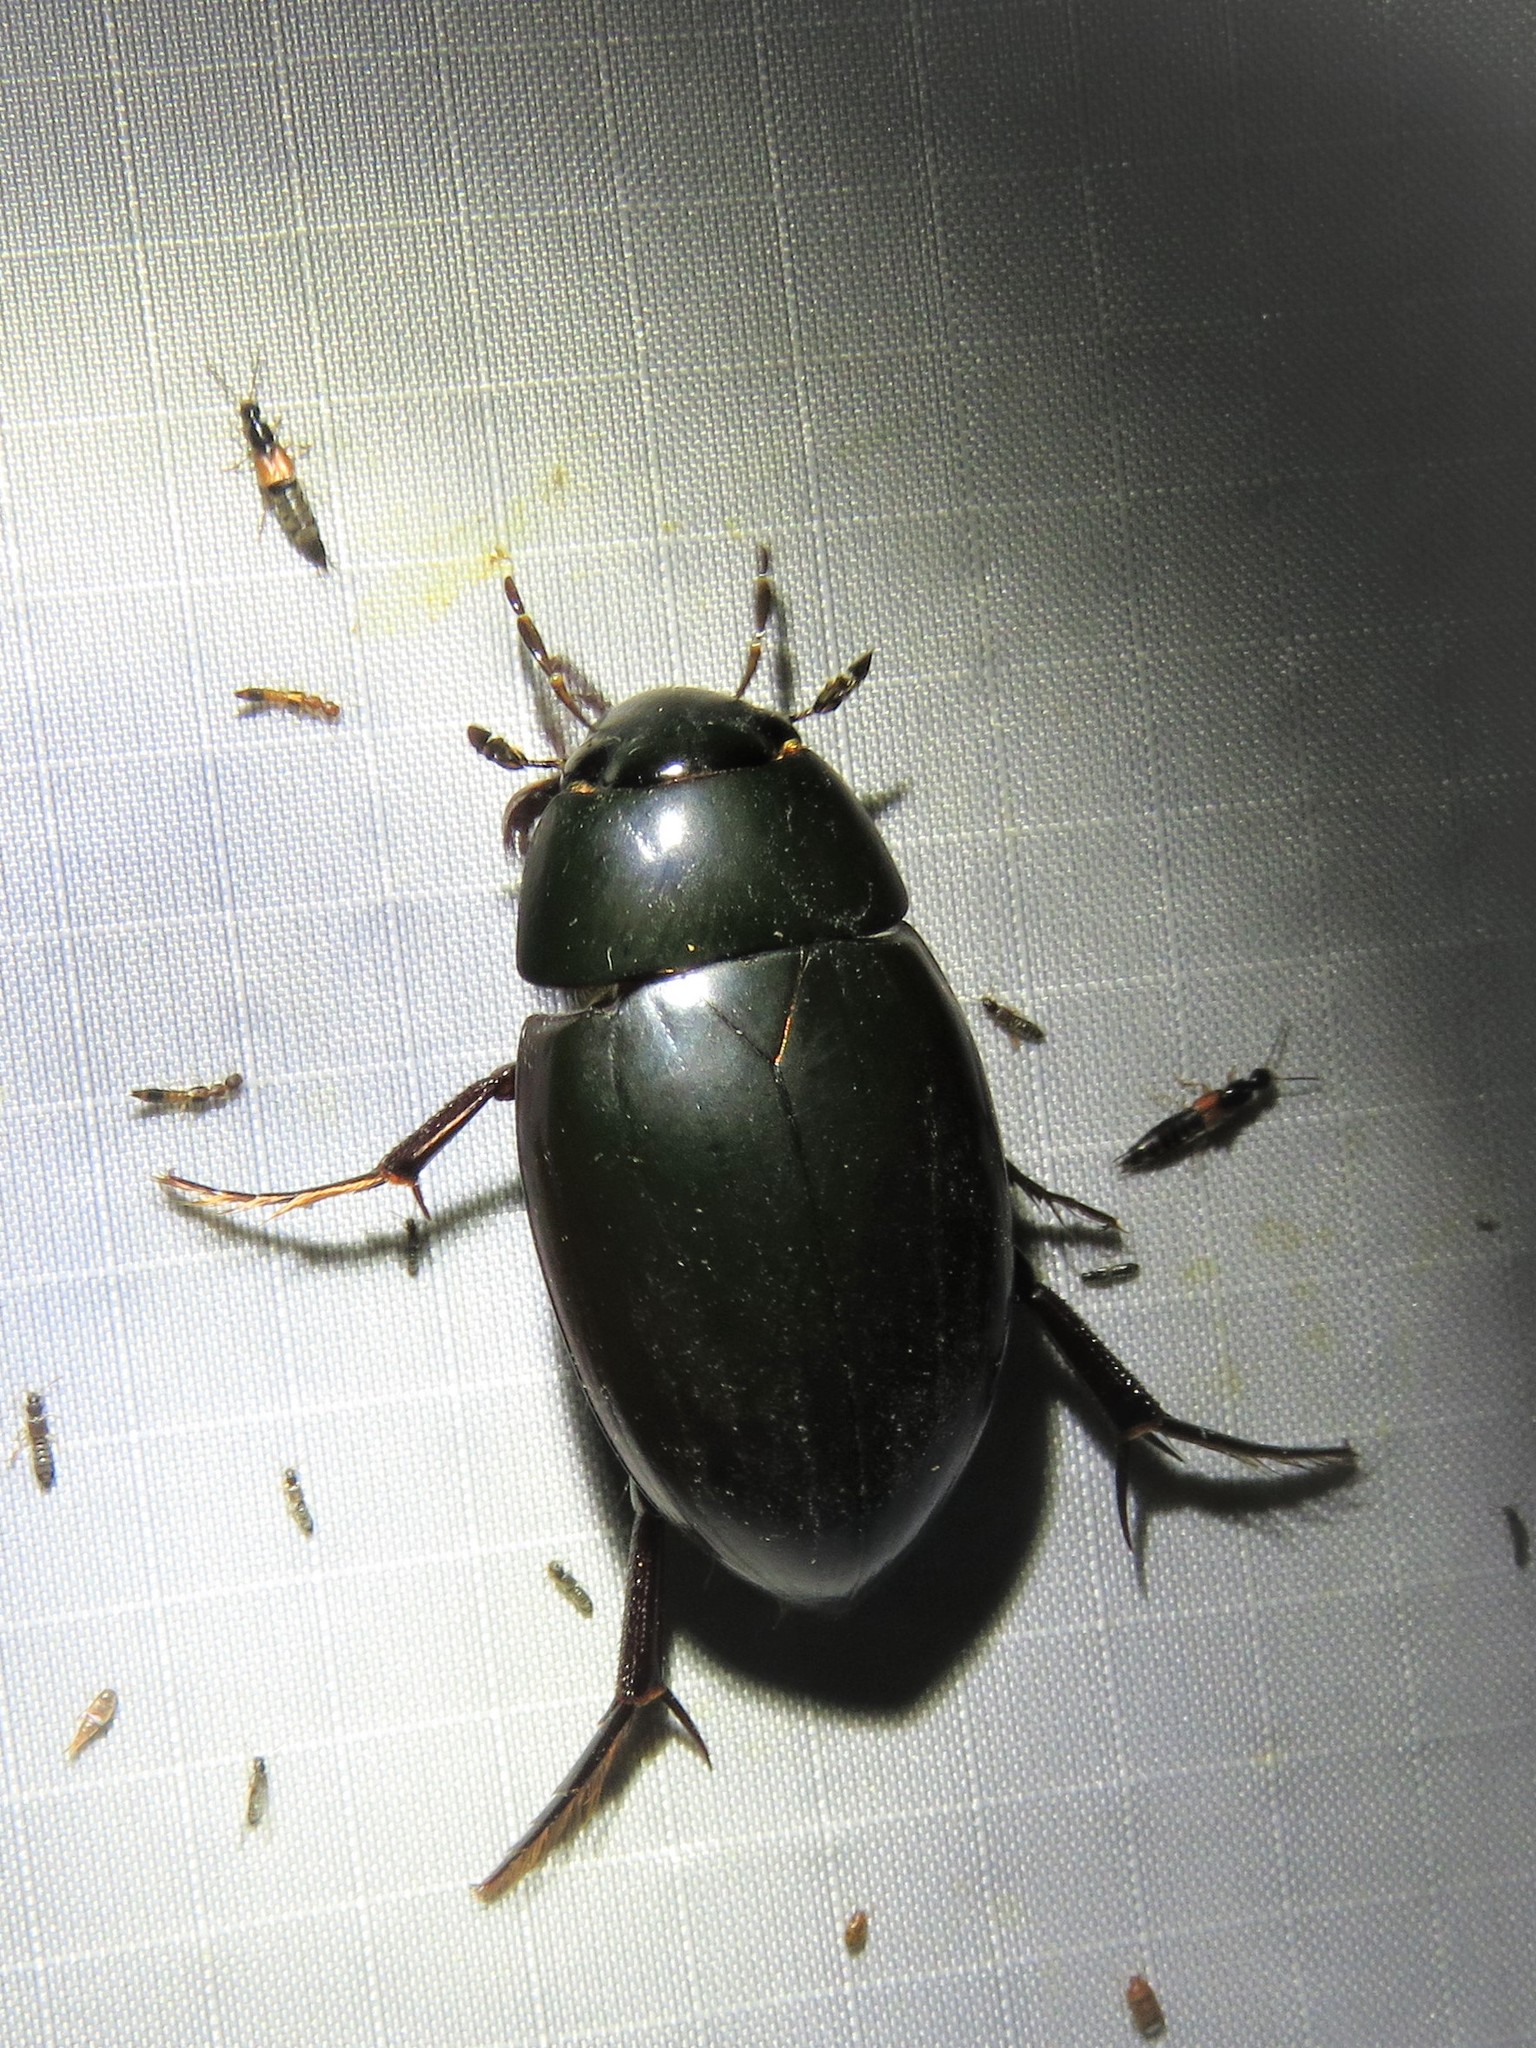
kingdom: Animalia
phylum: Arthropoda
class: Insecta
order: Coleoptera
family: Hydrophilidae
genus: Hydrophilus
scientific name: Hydrophilus ovatus
